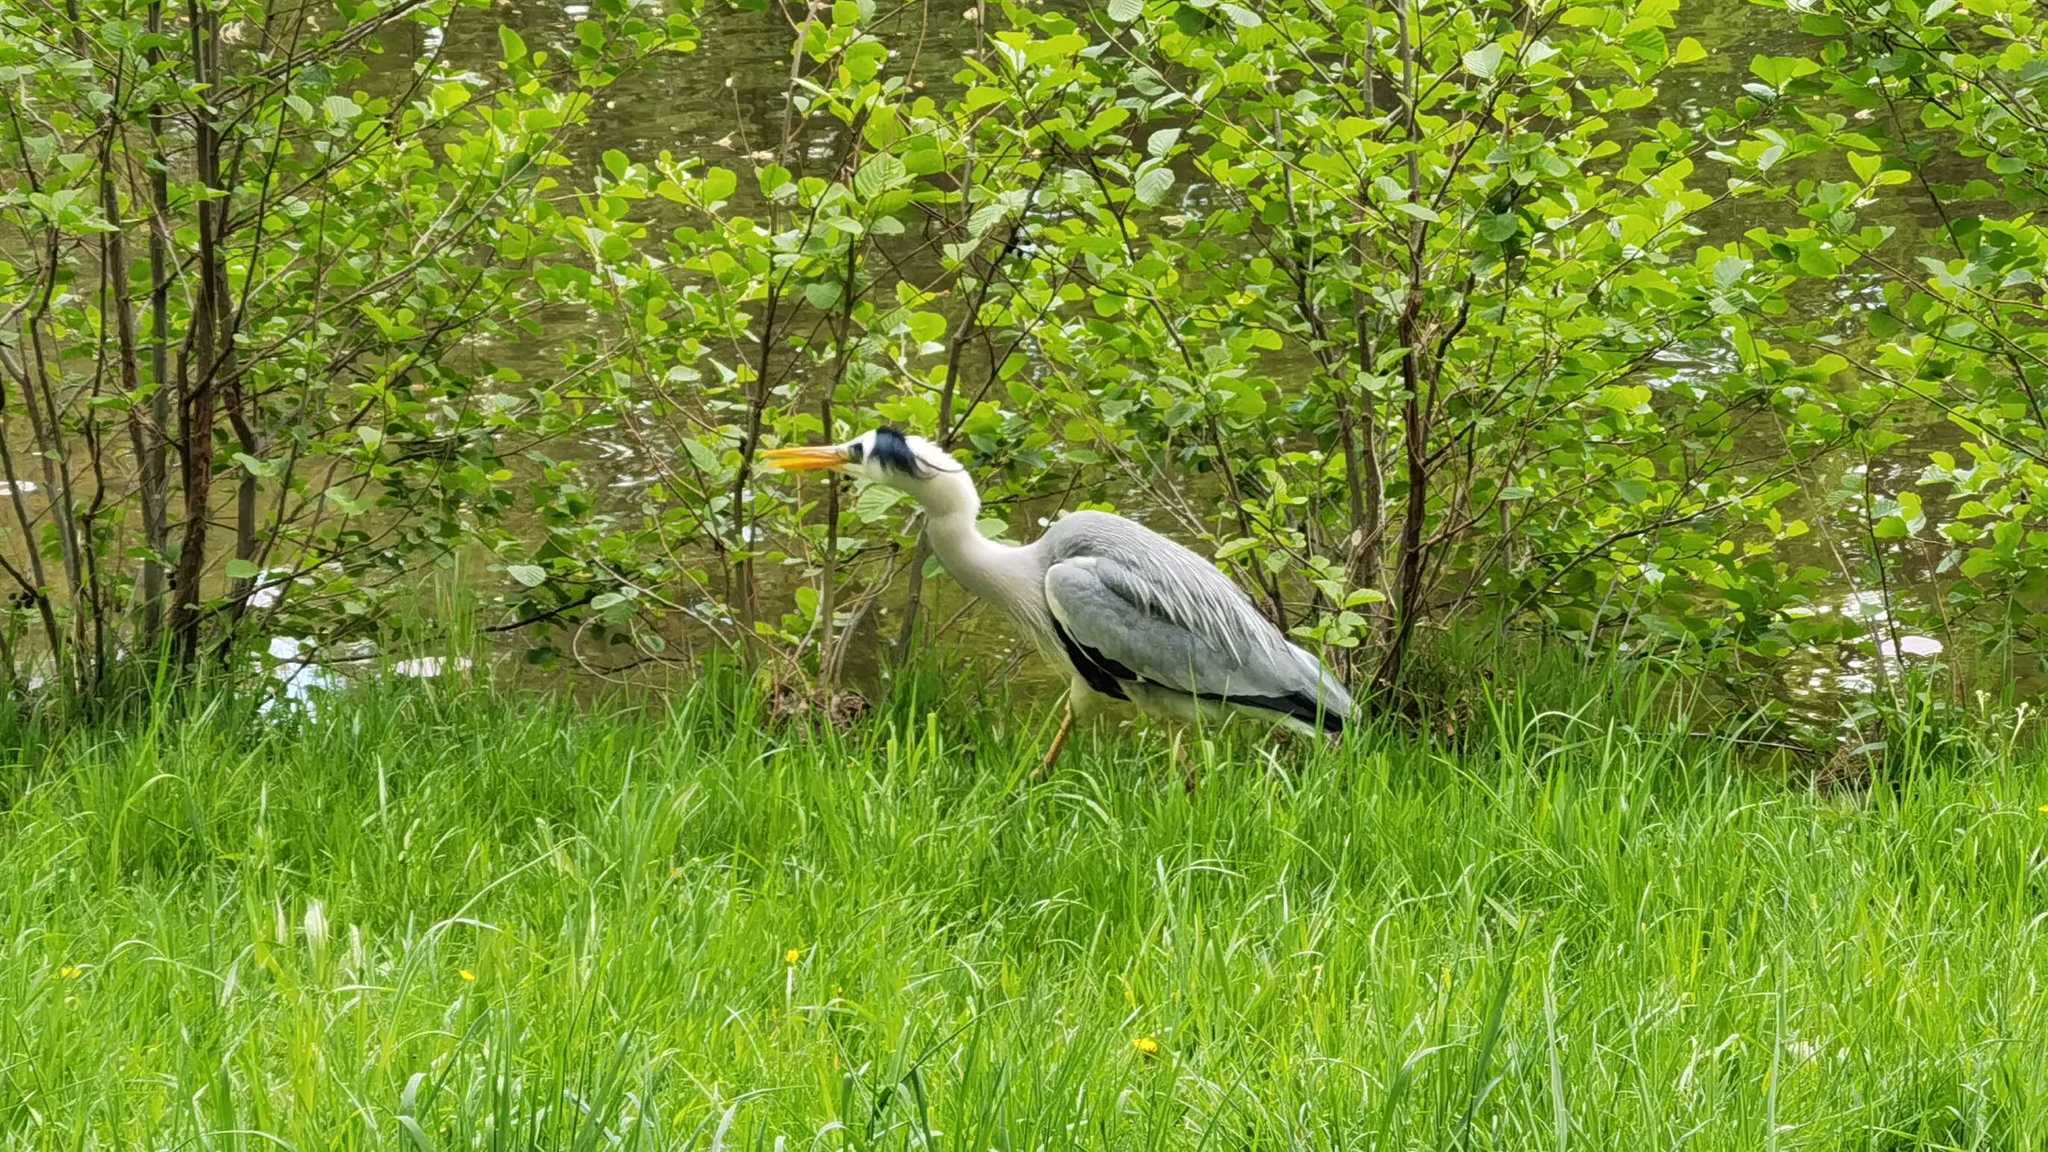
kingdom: Animalia
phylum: Chordata
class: Aves
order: Pelecaniformes
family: Ardeidae
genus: Ardea
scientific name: Ardea cinerea
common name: Grey heron
